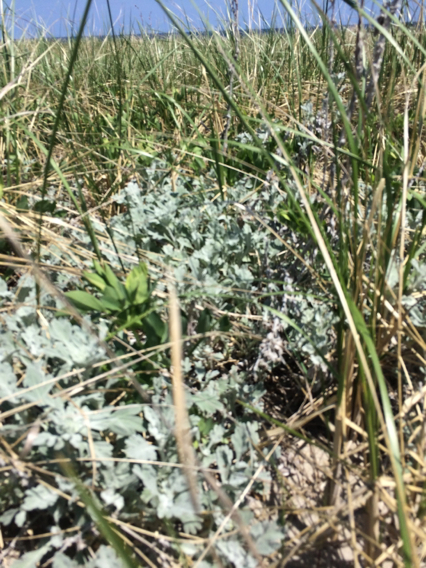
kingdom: Plantae
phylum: Tracheophyta
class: Magnoliopsida
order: Asterales
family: Asteraceae
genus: Artemisia
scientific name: Artemisia stelleriana
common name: Beach wormwood
